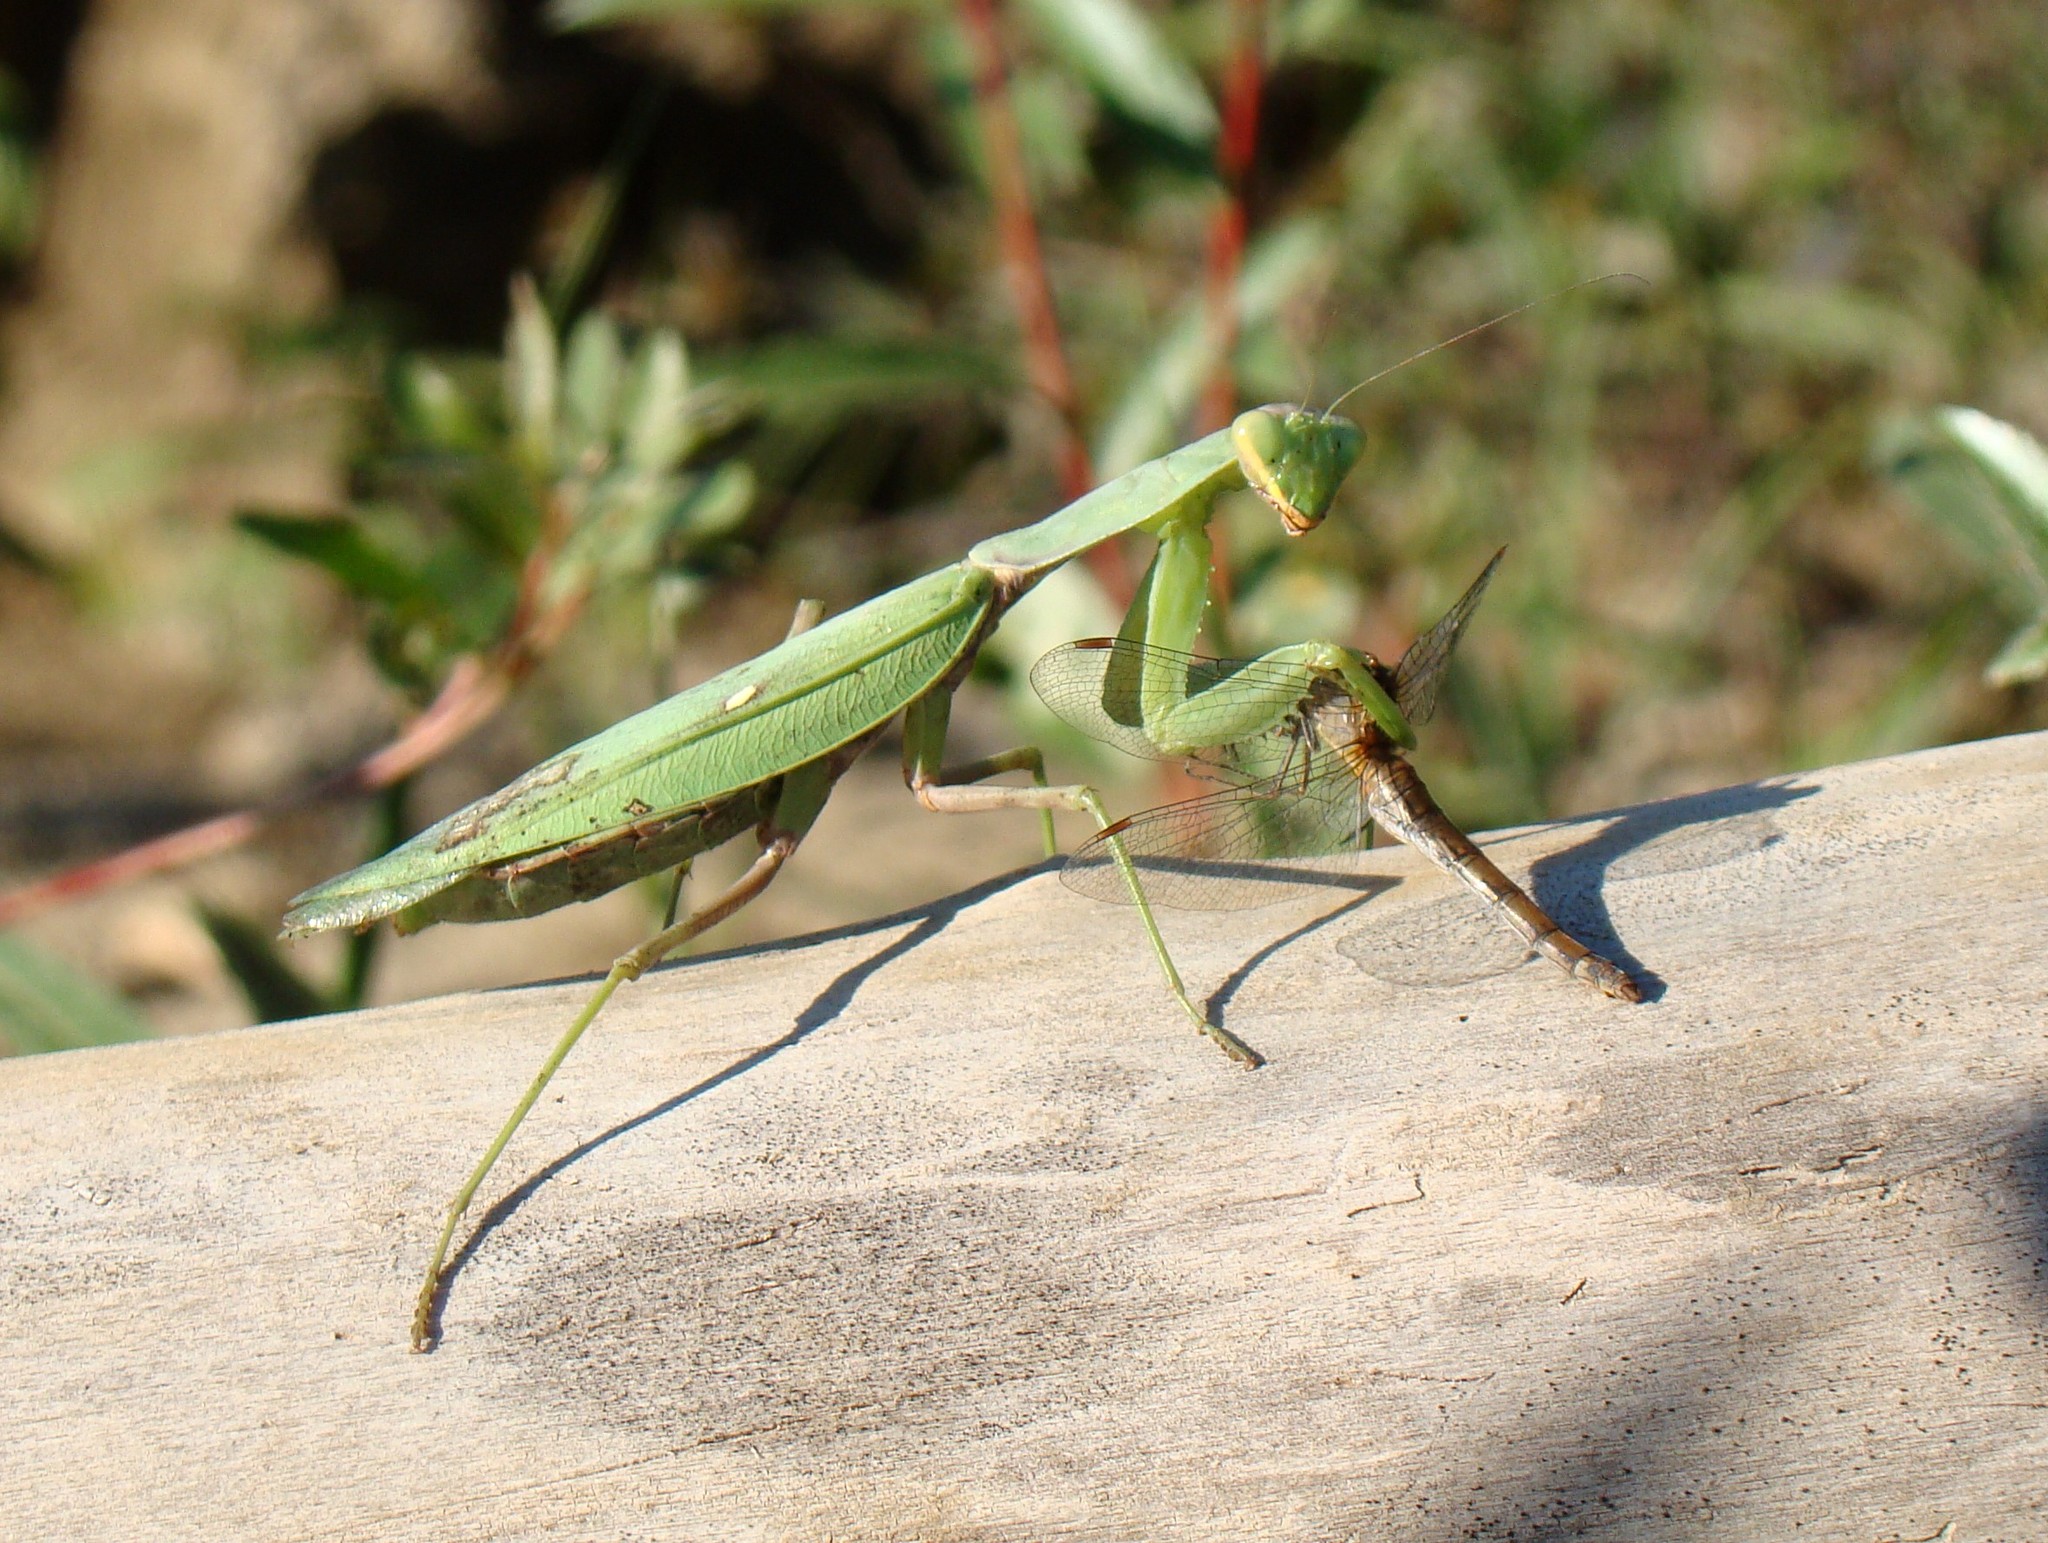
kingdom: Animalia
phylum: Arthropoda
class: Insecta
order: Odonata
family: Libellulidae
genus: Sympetrum
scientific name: Sympetrum striolatum
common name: Common darter
